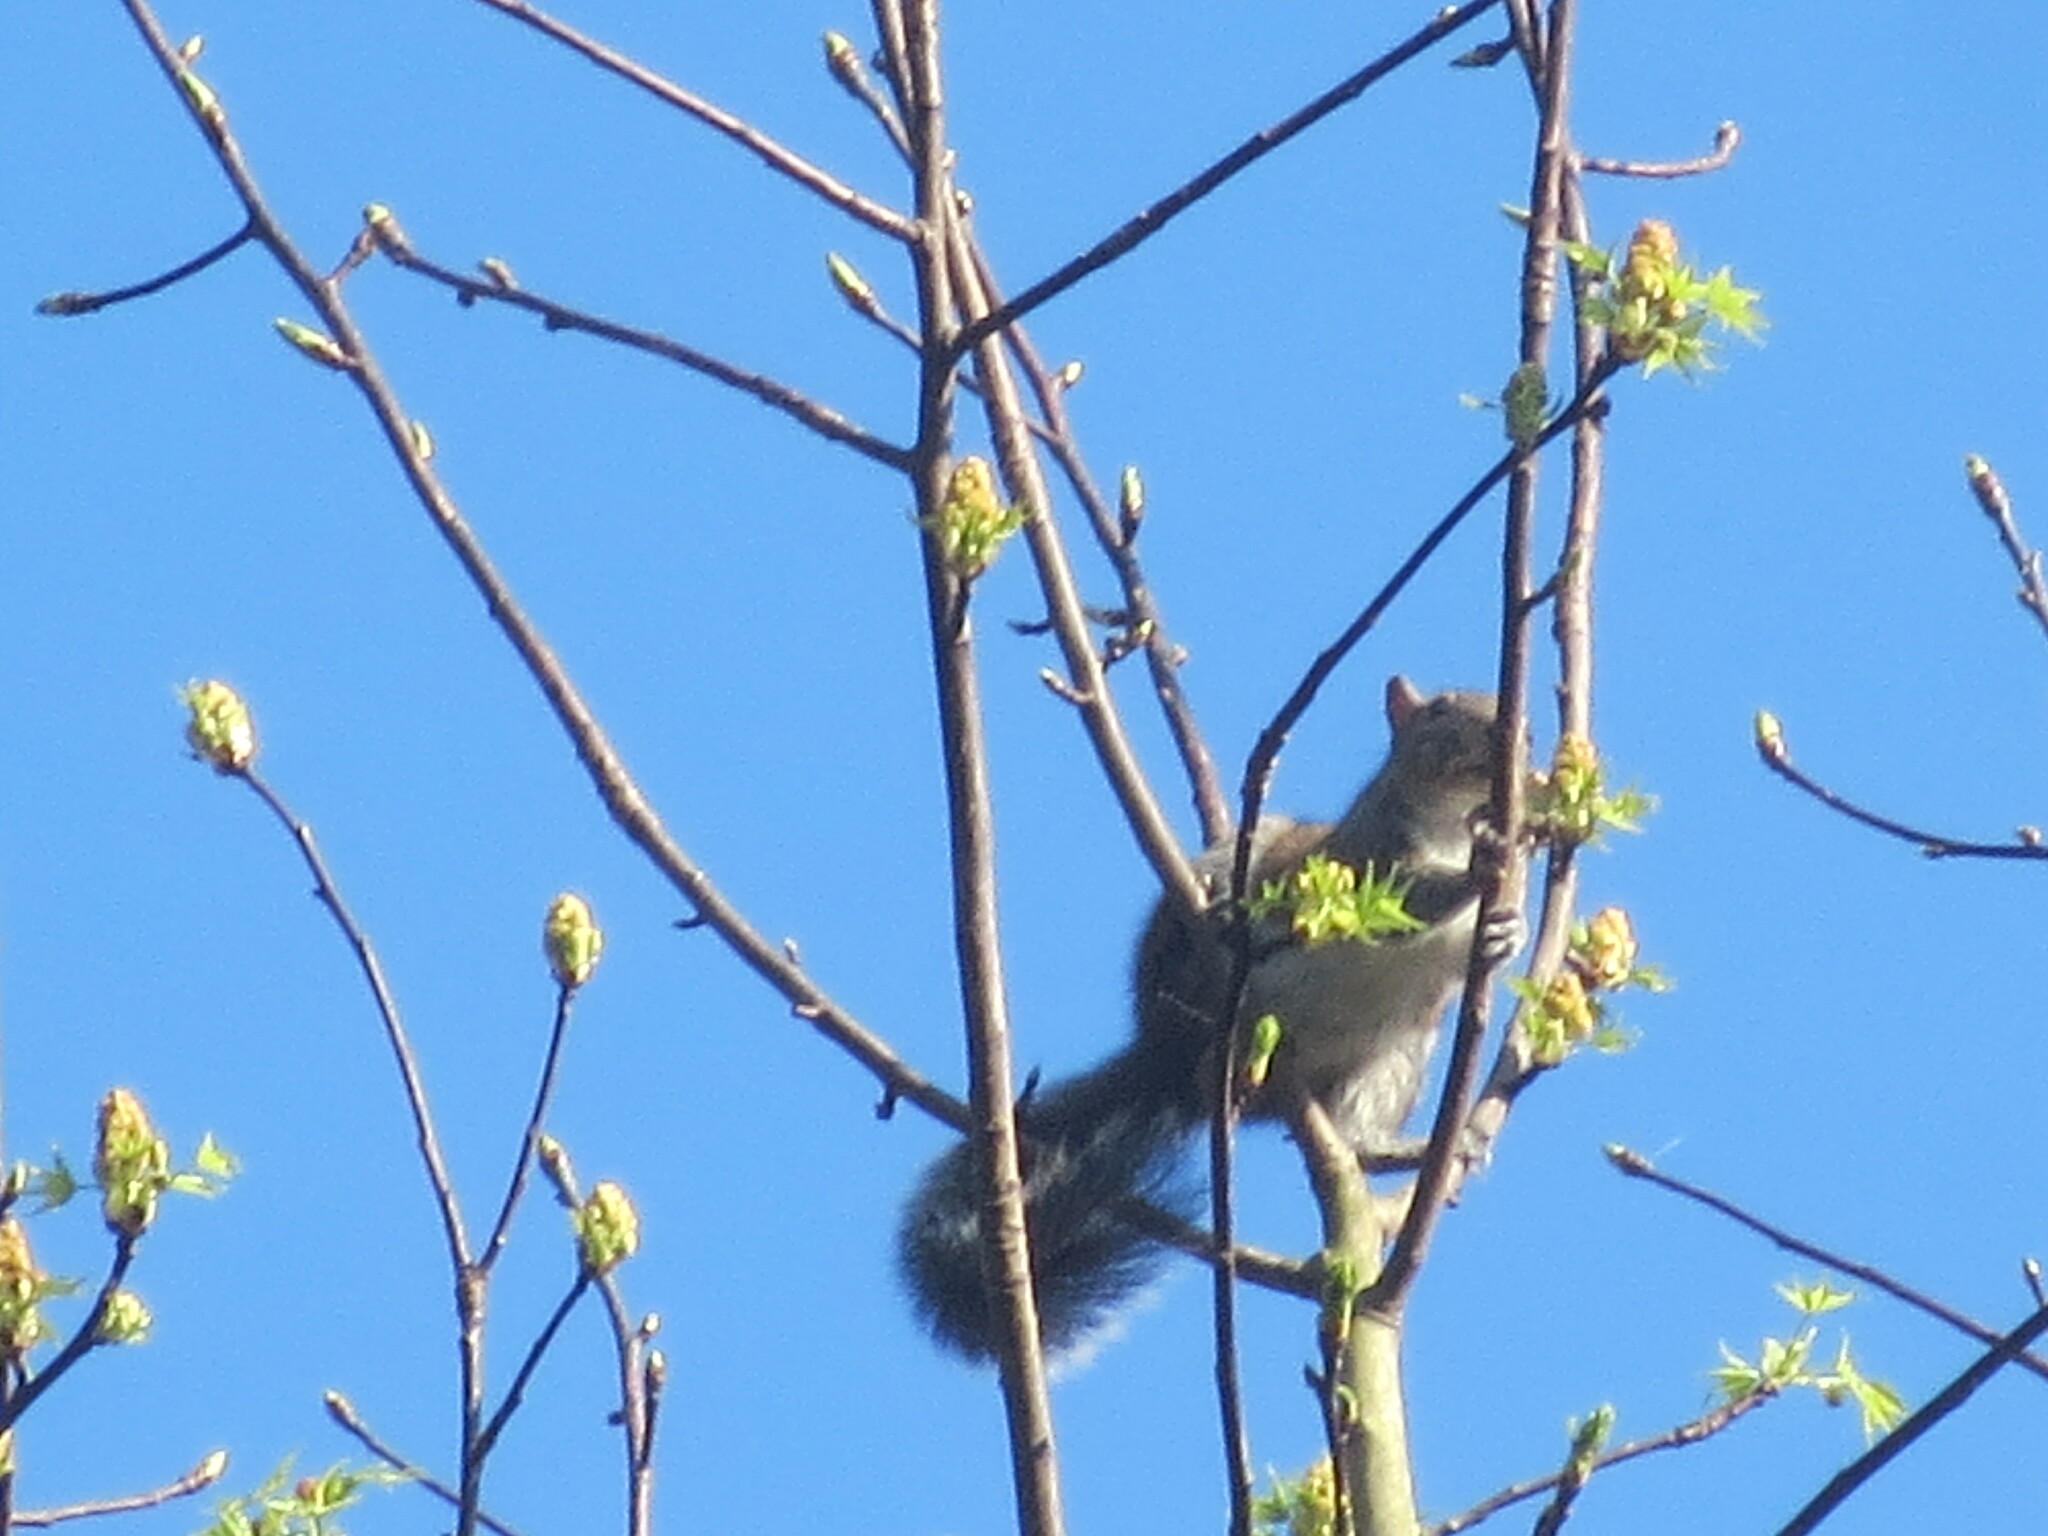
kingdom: Animalia
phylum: Chordata
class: Mammalia
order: Rodentia
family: Sciuridae
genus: Sciurus
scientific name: Sciurus carolinensis
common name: Eastern gray squirrel
